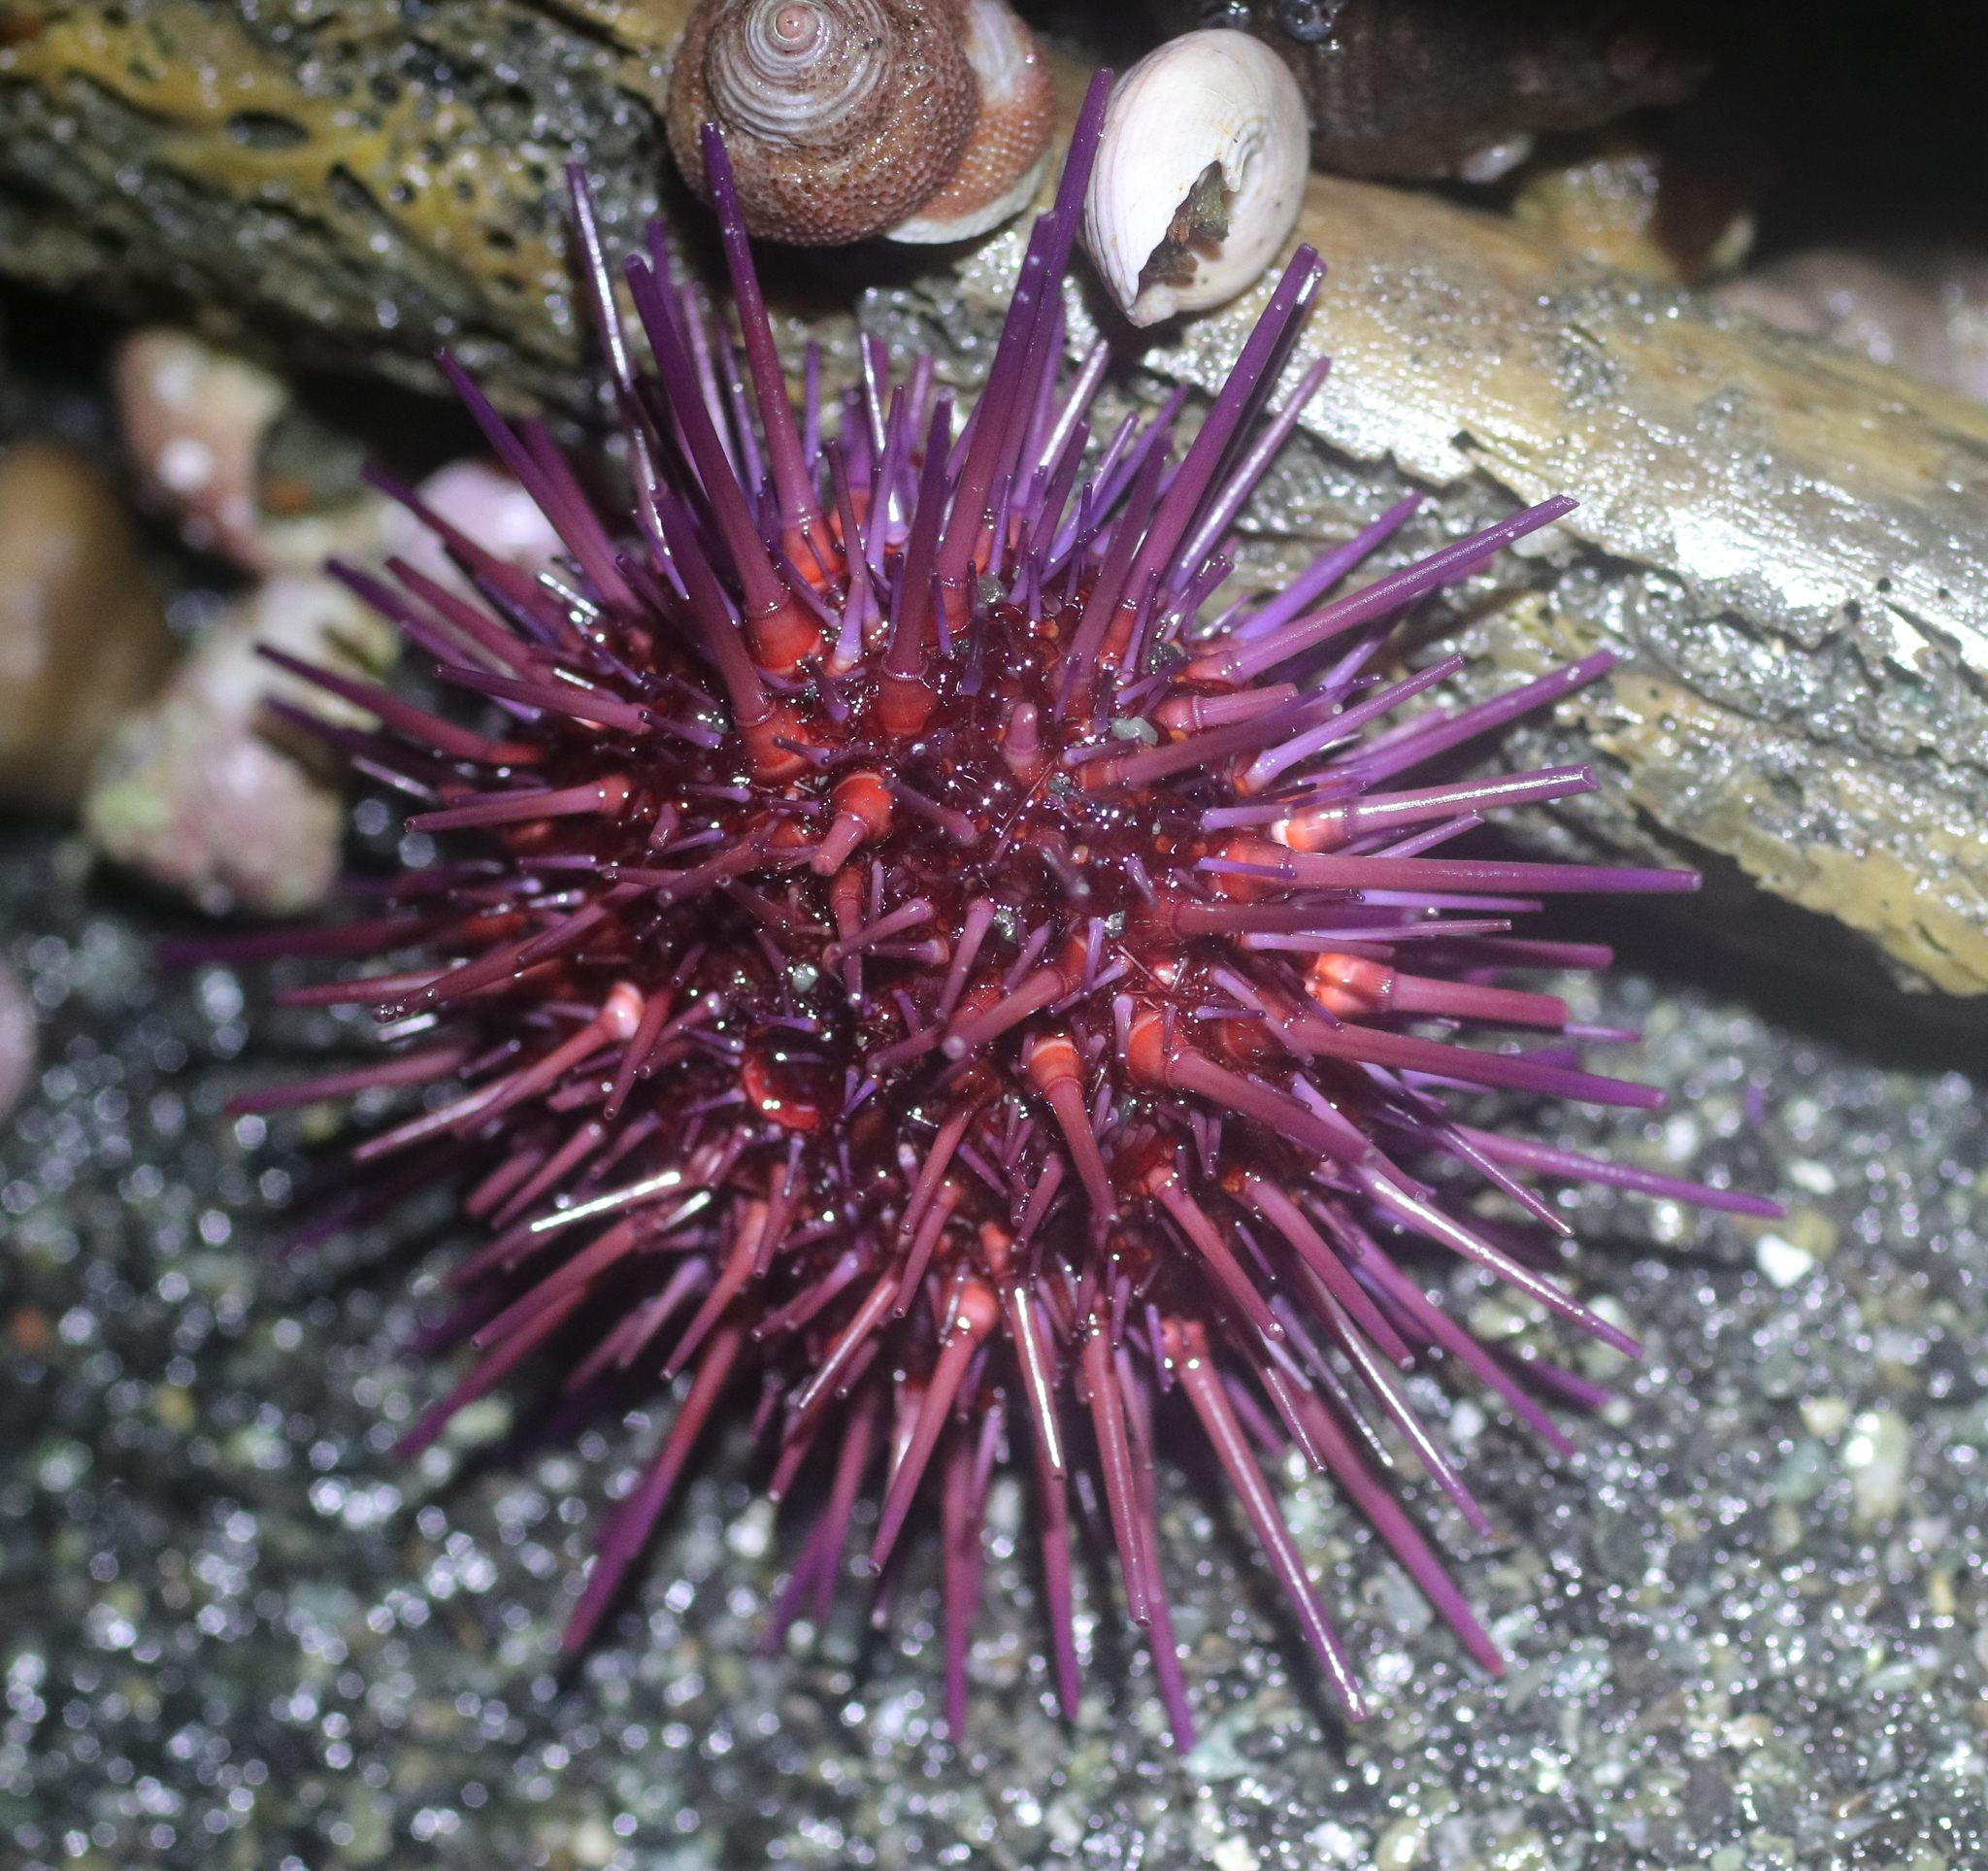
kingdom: Animalia
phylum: Echinodermata
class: Echinoidea
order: Camarodonta
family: Strongylocentrotidae
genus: Mesocentrotus
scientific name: Mesocentrotus franciscanus
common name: Red sea urchin
